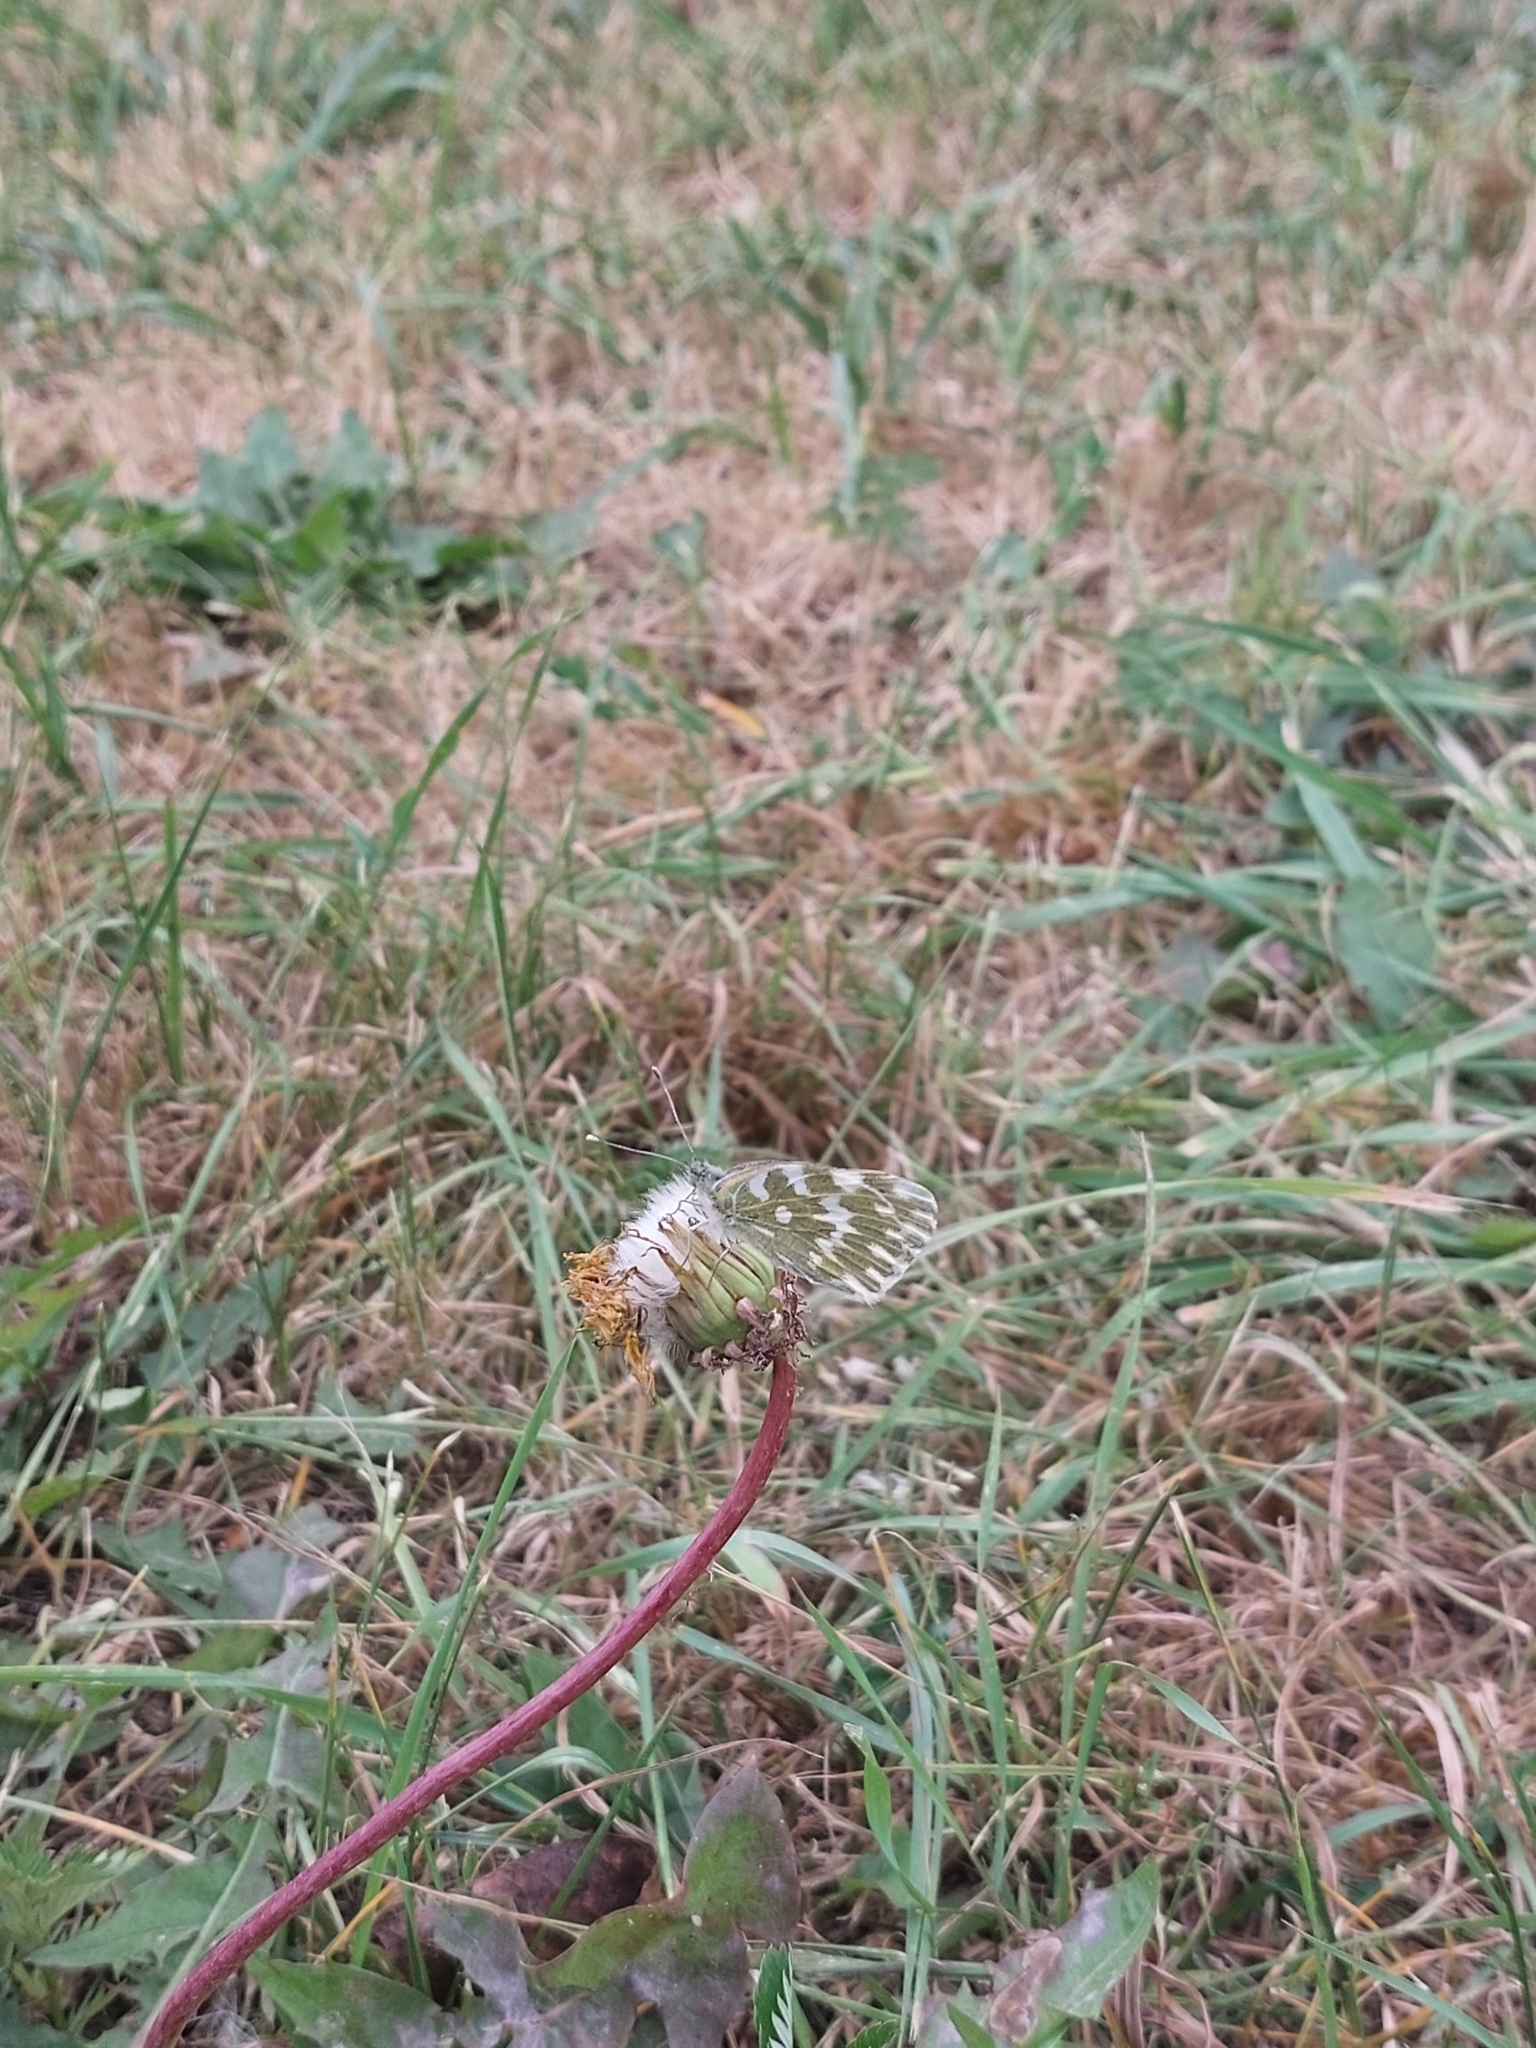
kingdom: Animalia
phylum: Arthropoda
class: Insecta
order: Lepidoptera
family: Pieridae
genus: Pontia
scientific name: Pontia edusa
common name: Eastern bath white
